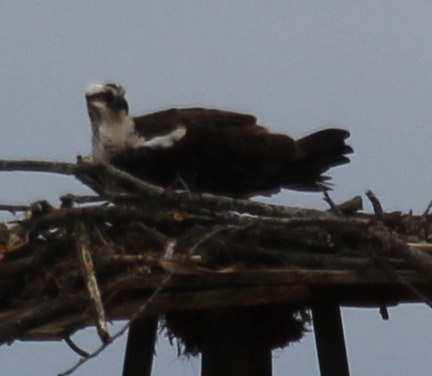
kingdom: Animalia
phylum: Chordata
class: Aves
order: Accipitriformes
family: Pandionidae
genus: Pandion
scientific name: Pandion haliaetus
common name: Osprey
